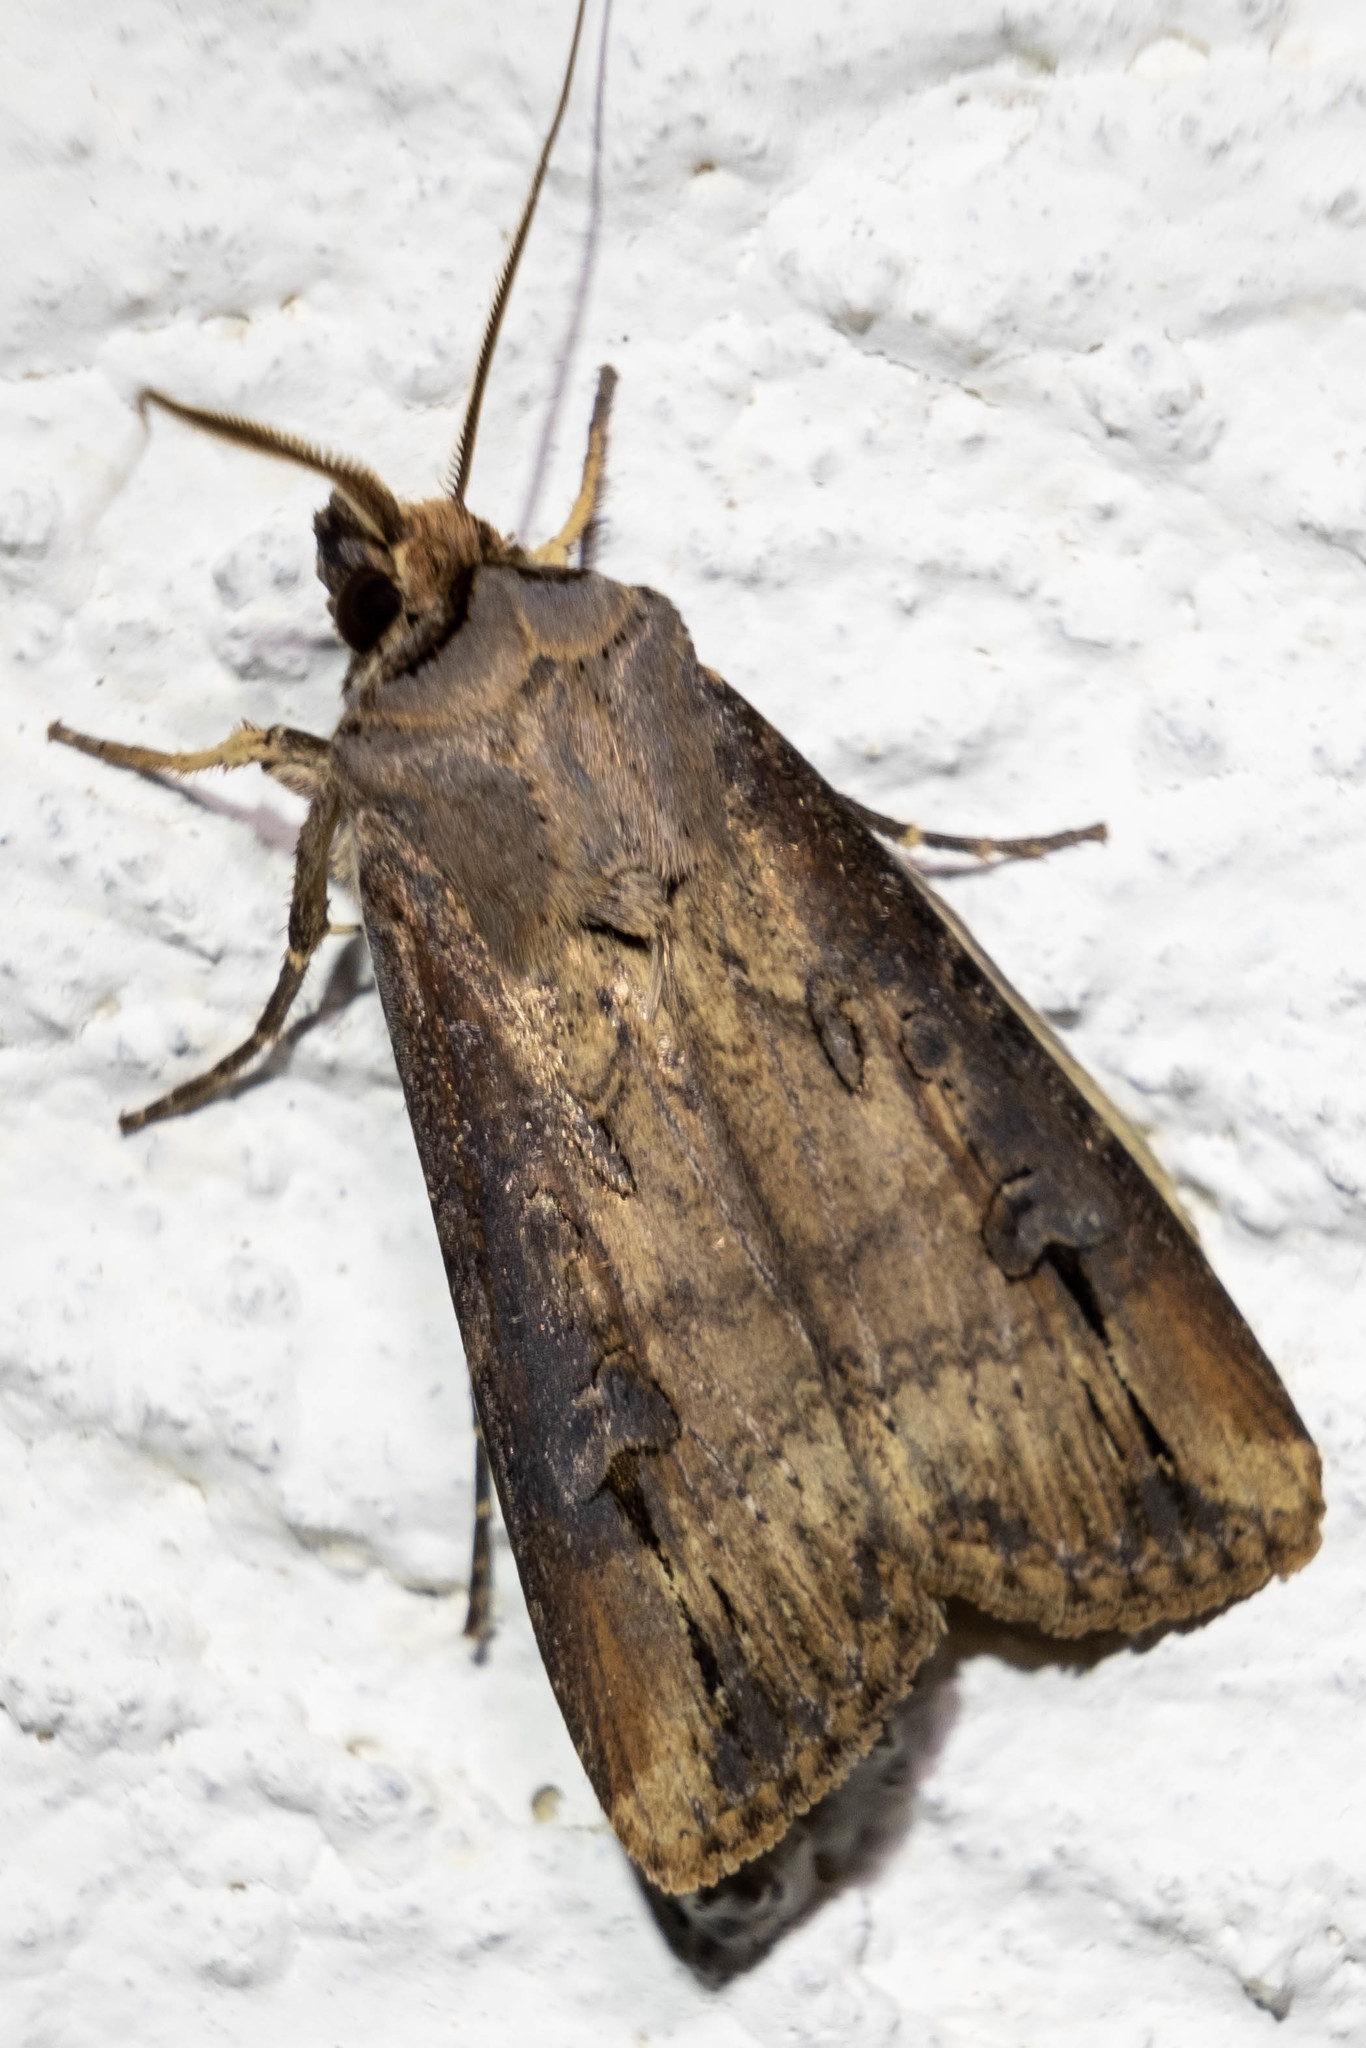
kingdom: Animalia
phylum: Arthropoda
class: Insecta
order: Lepidoptera
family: Noctuidae
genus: Agrotis
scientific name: Agrotis ipsilon
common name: Dark sword-grass
